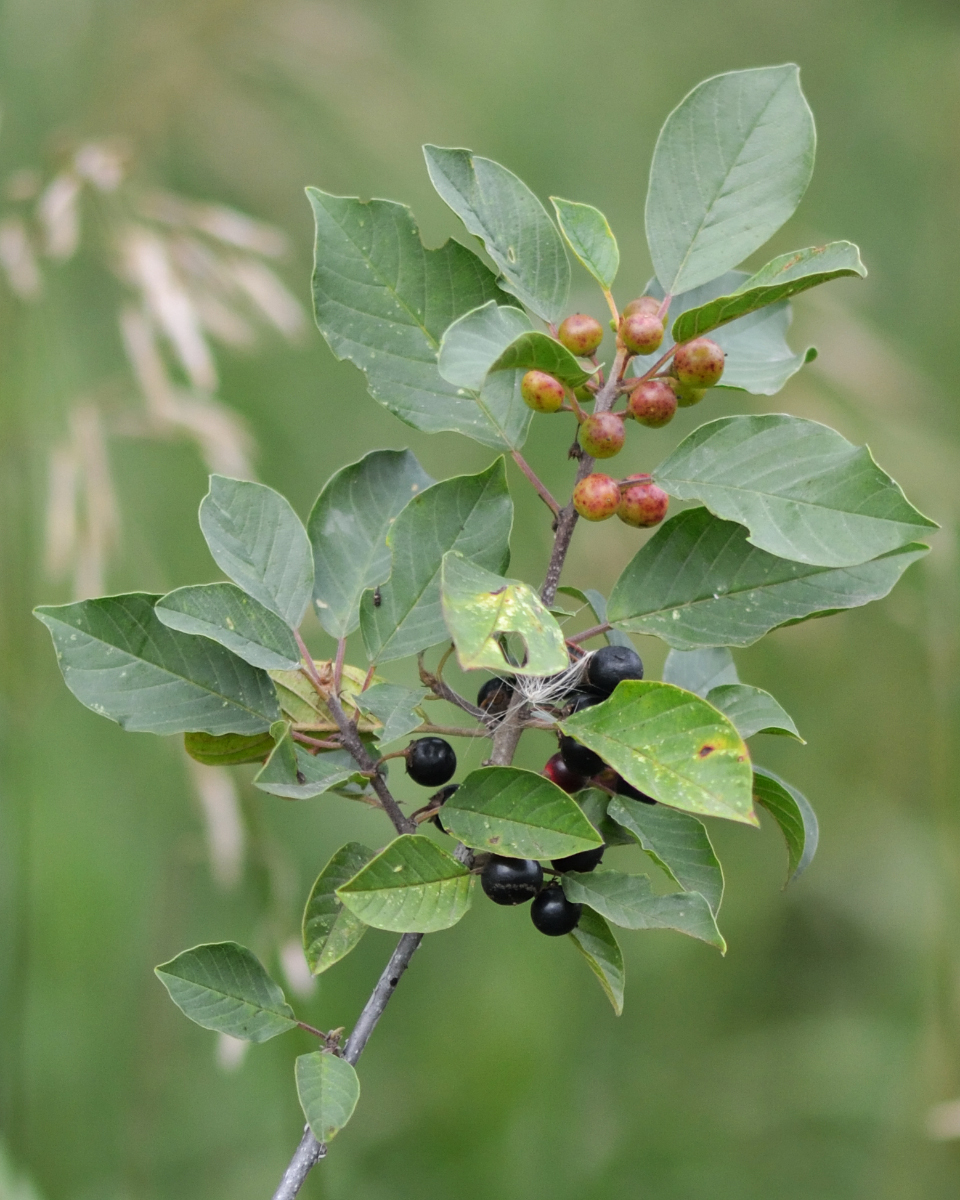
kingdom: Plantae
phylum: Tracheophyta
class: Magnoliopsida
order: Rosales
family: Rhamnaceae
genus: Frangula
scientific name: Frangula alnus
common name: Alder buckthorn
